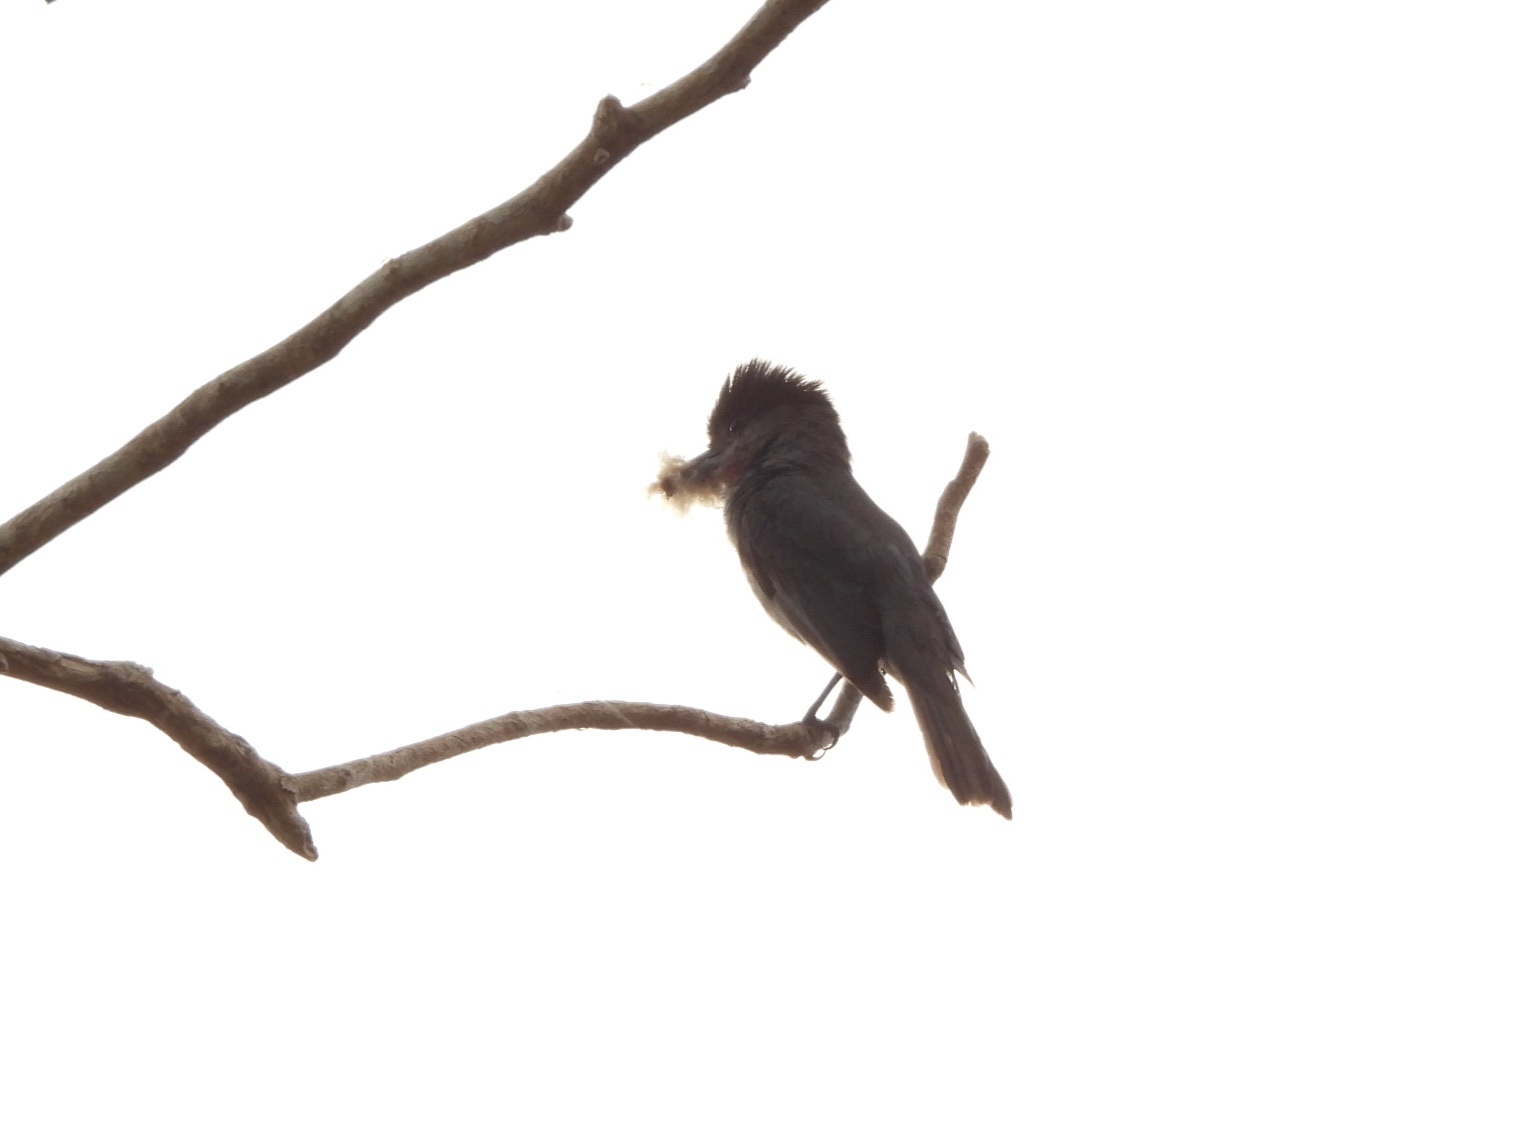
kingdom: Animalia
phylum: Chordata
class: Aves
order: Passeriformes
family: Cotingidae
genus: Pachyramphus
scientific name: Pachyramphus aglaiae
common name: Rose-throated becard
